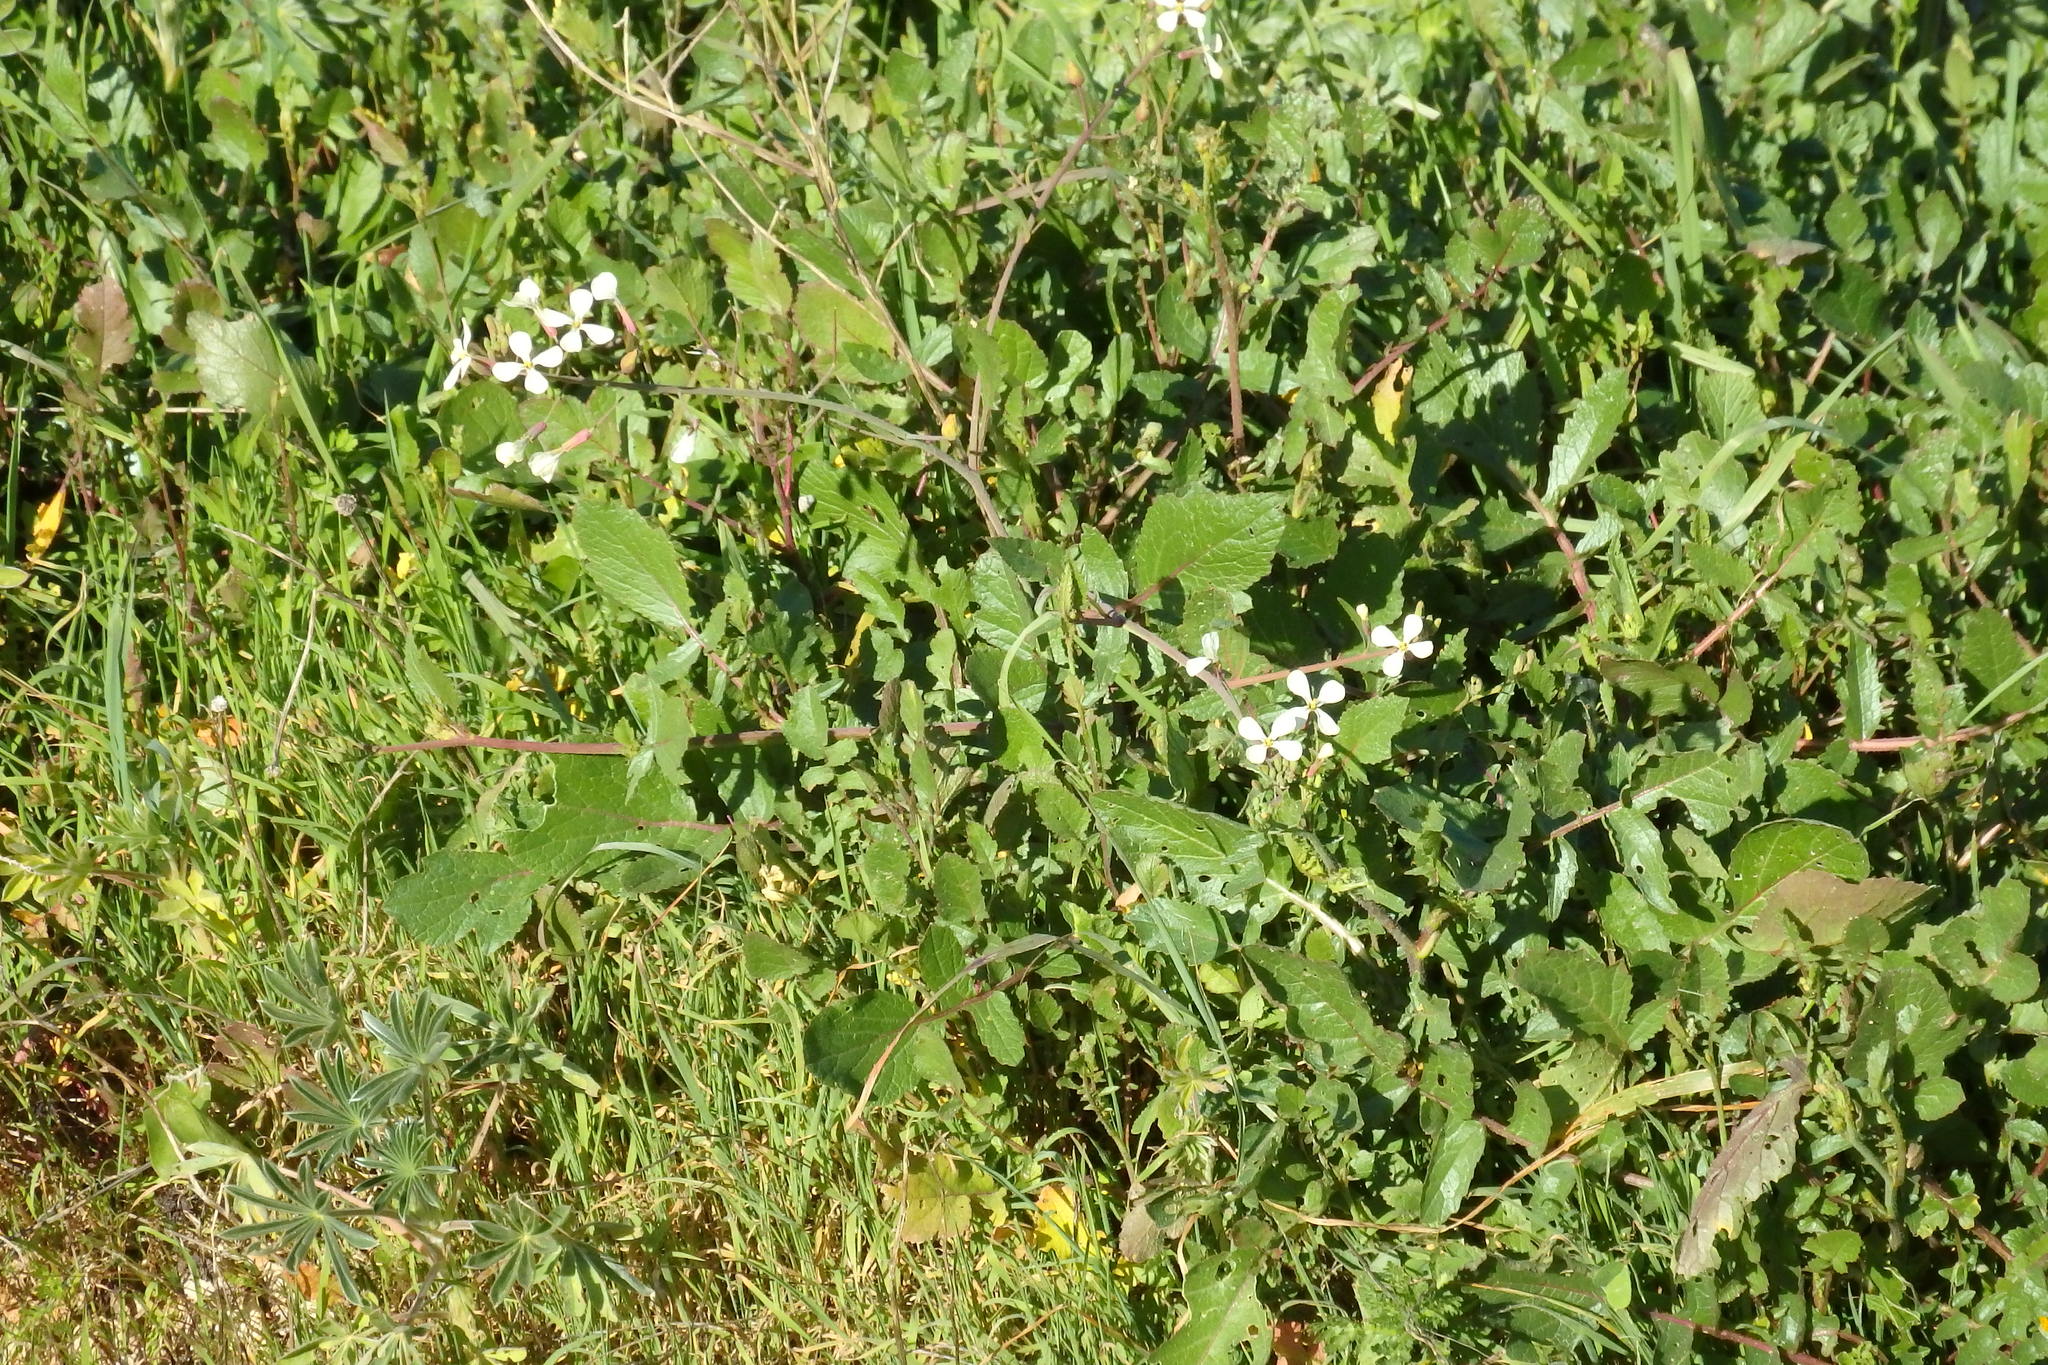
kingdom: Plantae
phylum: Tracheophyta
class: Magnoliopsida
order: Brassicales
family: Brassicaceae
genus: Raphanus
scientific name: Raphanus raphanistrum
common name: Wild radish
